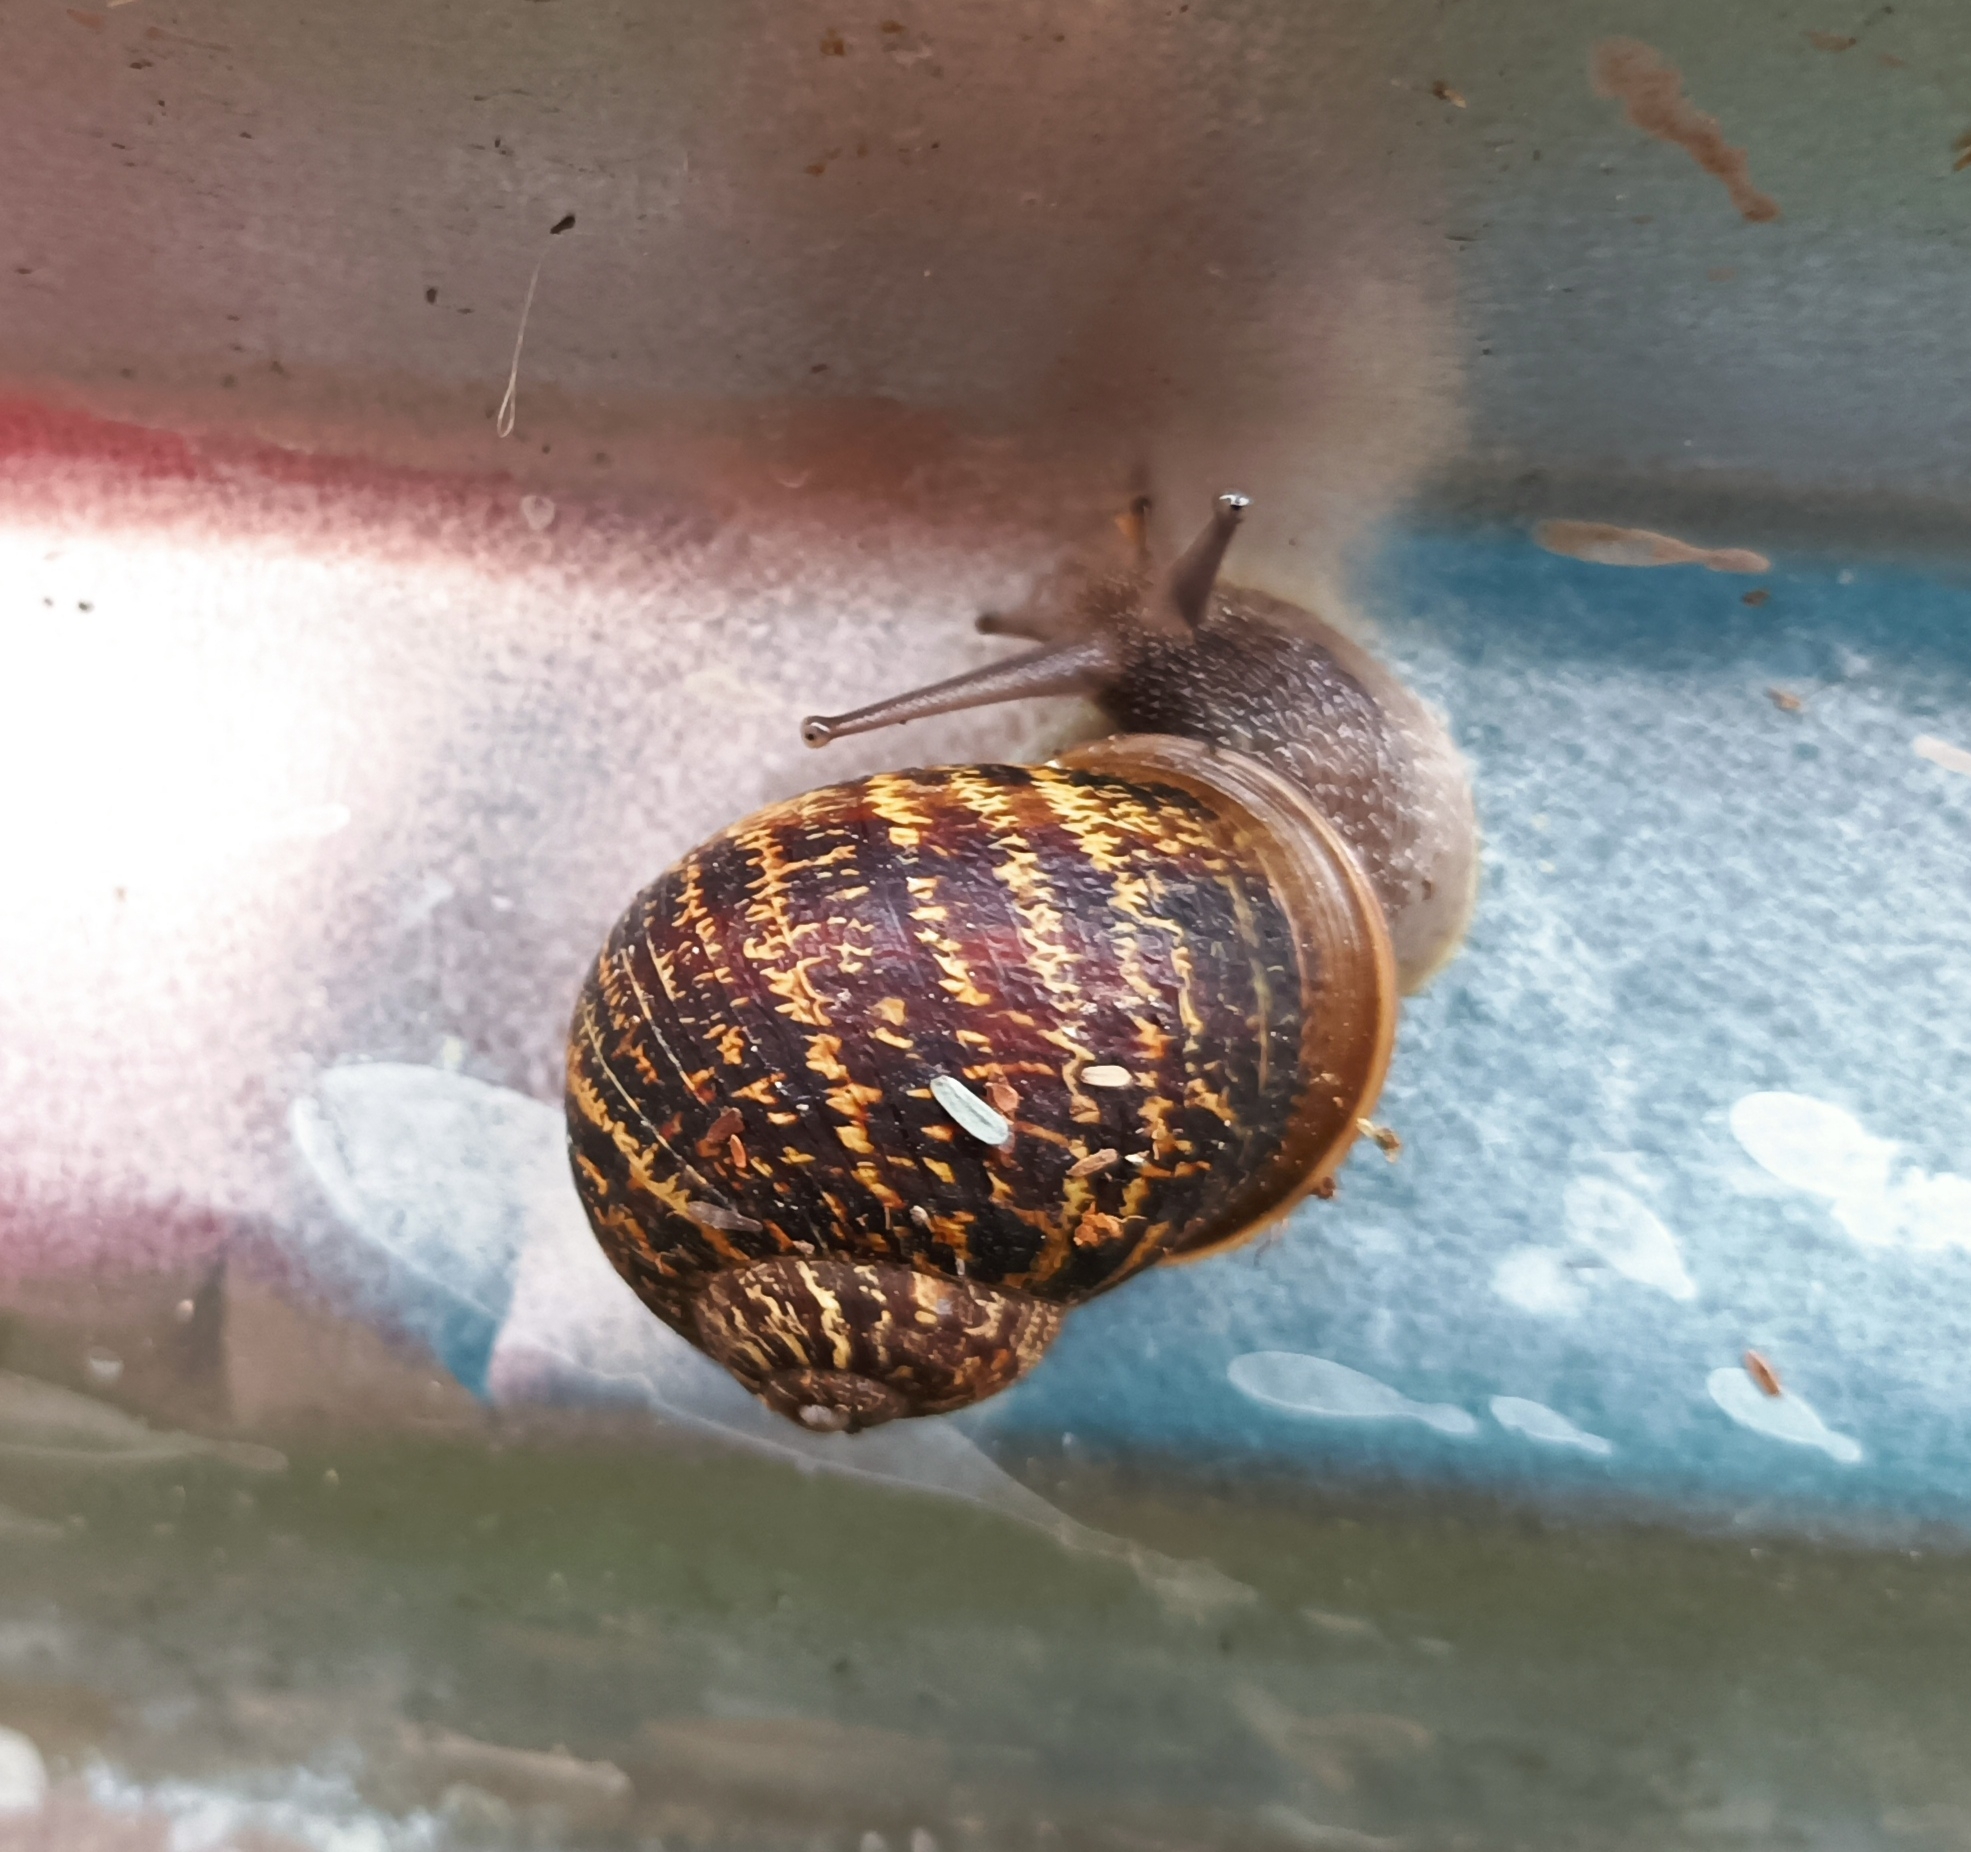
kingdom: Animalia
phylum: Mollusca
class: Gastropoda
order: Stylommatophora
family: Helicidae
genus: Cornu
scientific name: Cornu aspersum
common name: Brown garden snail
